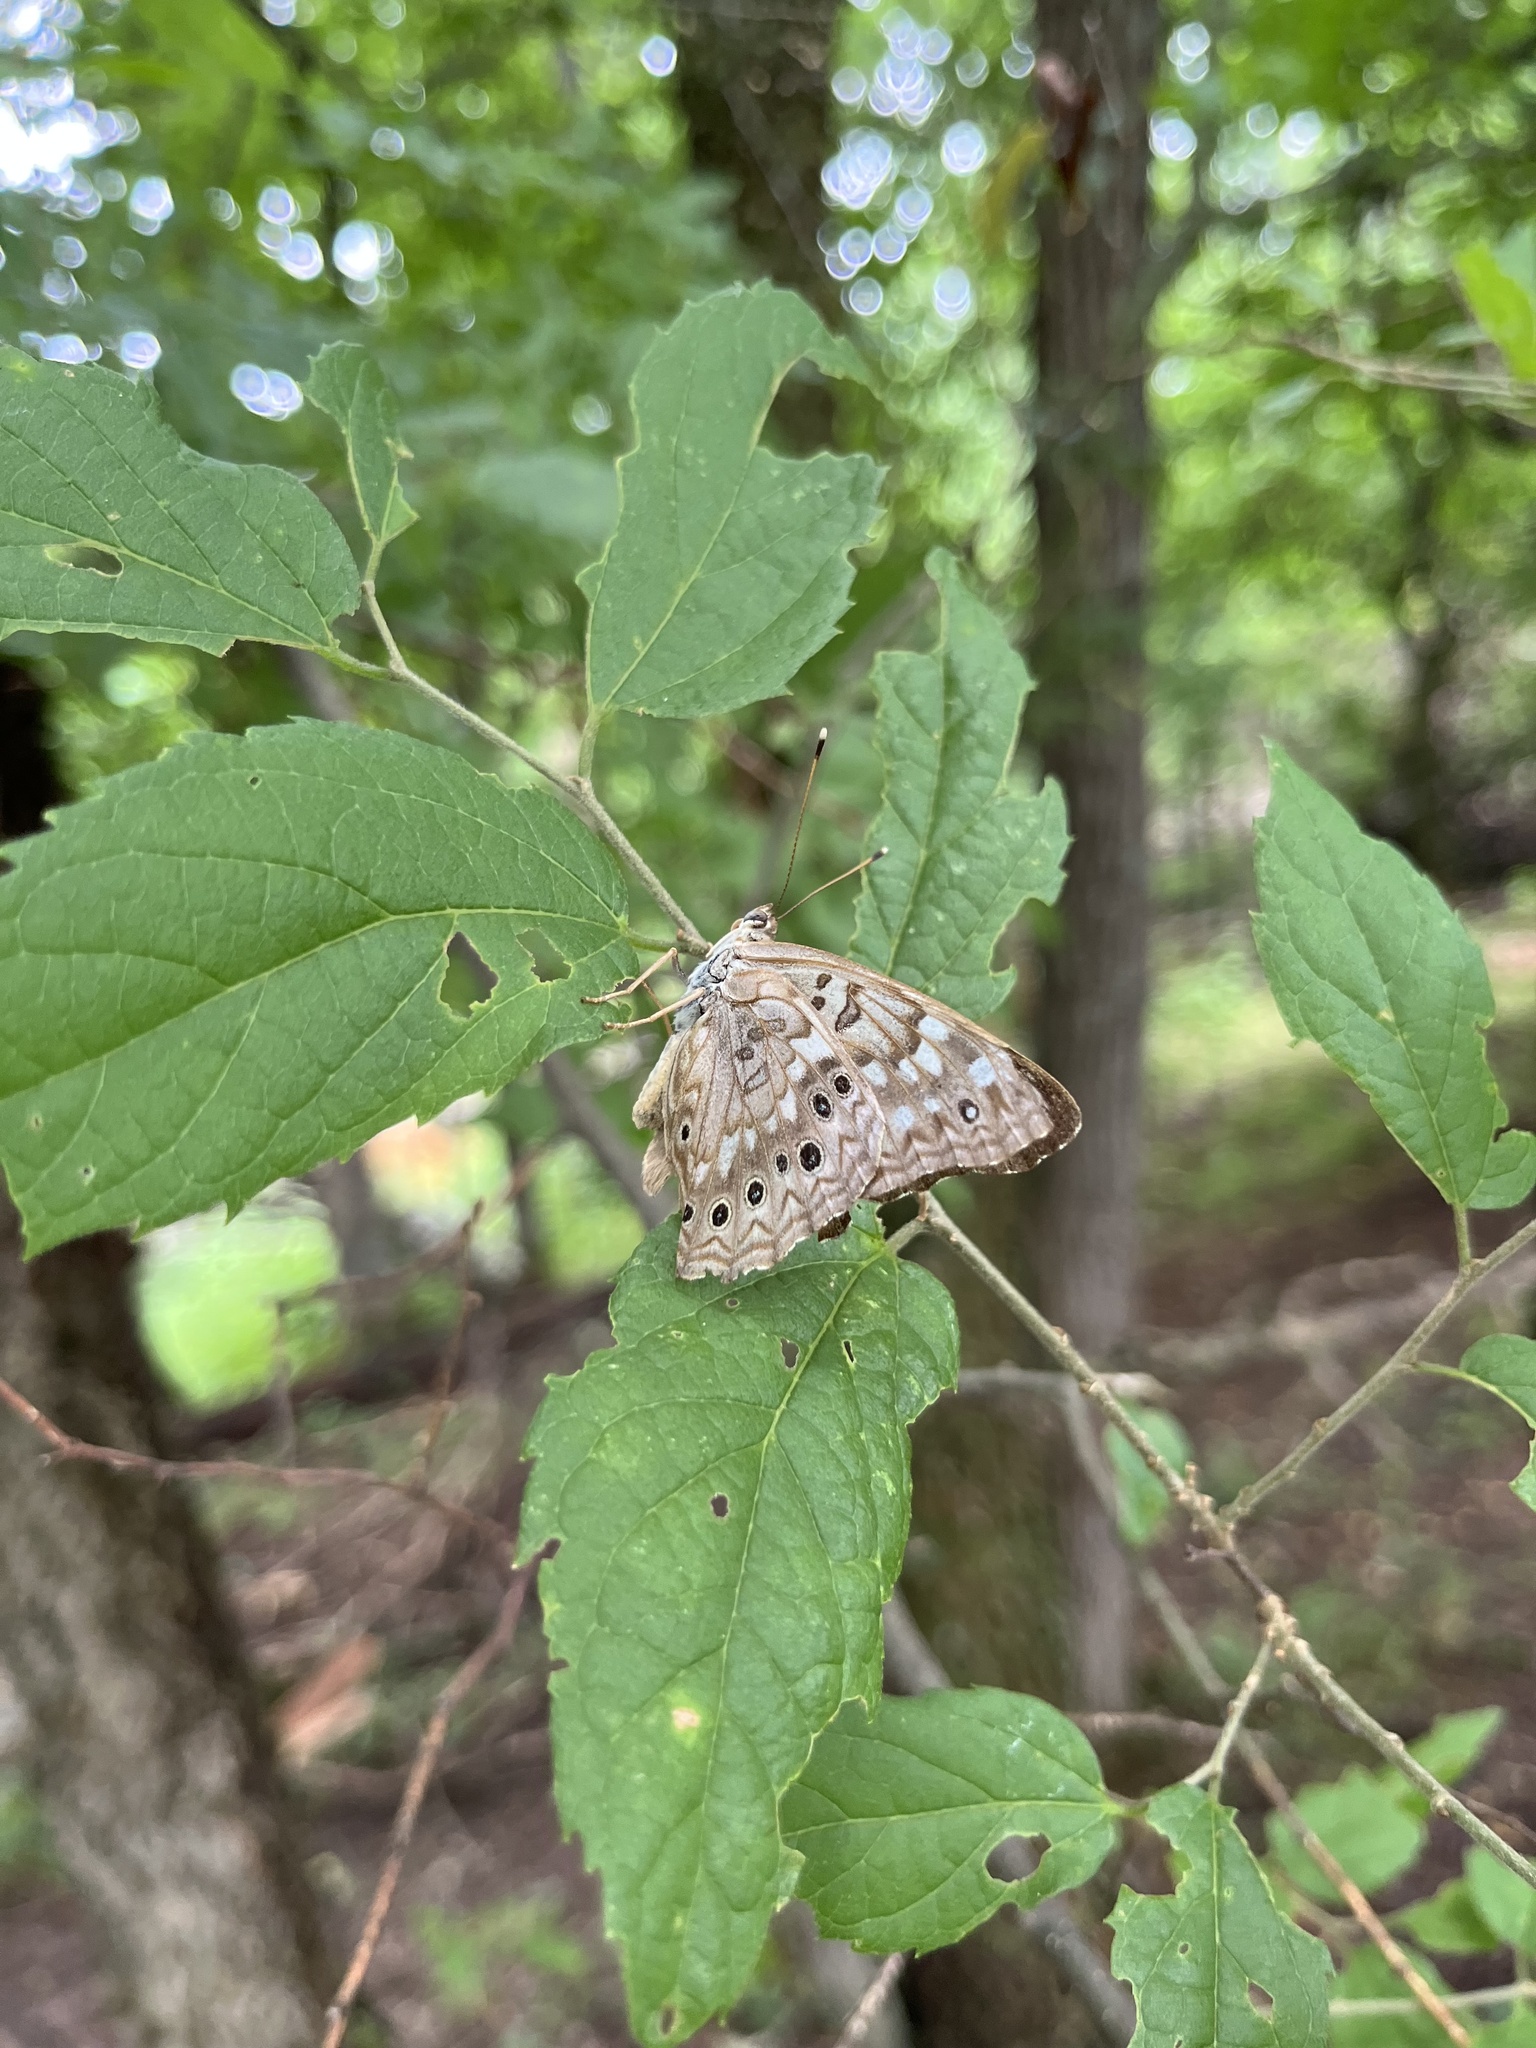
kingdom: Animalia
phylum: Arthropoda
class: Insecta
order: Lepidoptera
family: Nymphalidae
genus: Asterocampa
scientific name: Asterocampa celtis
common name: Hackberry emperor
